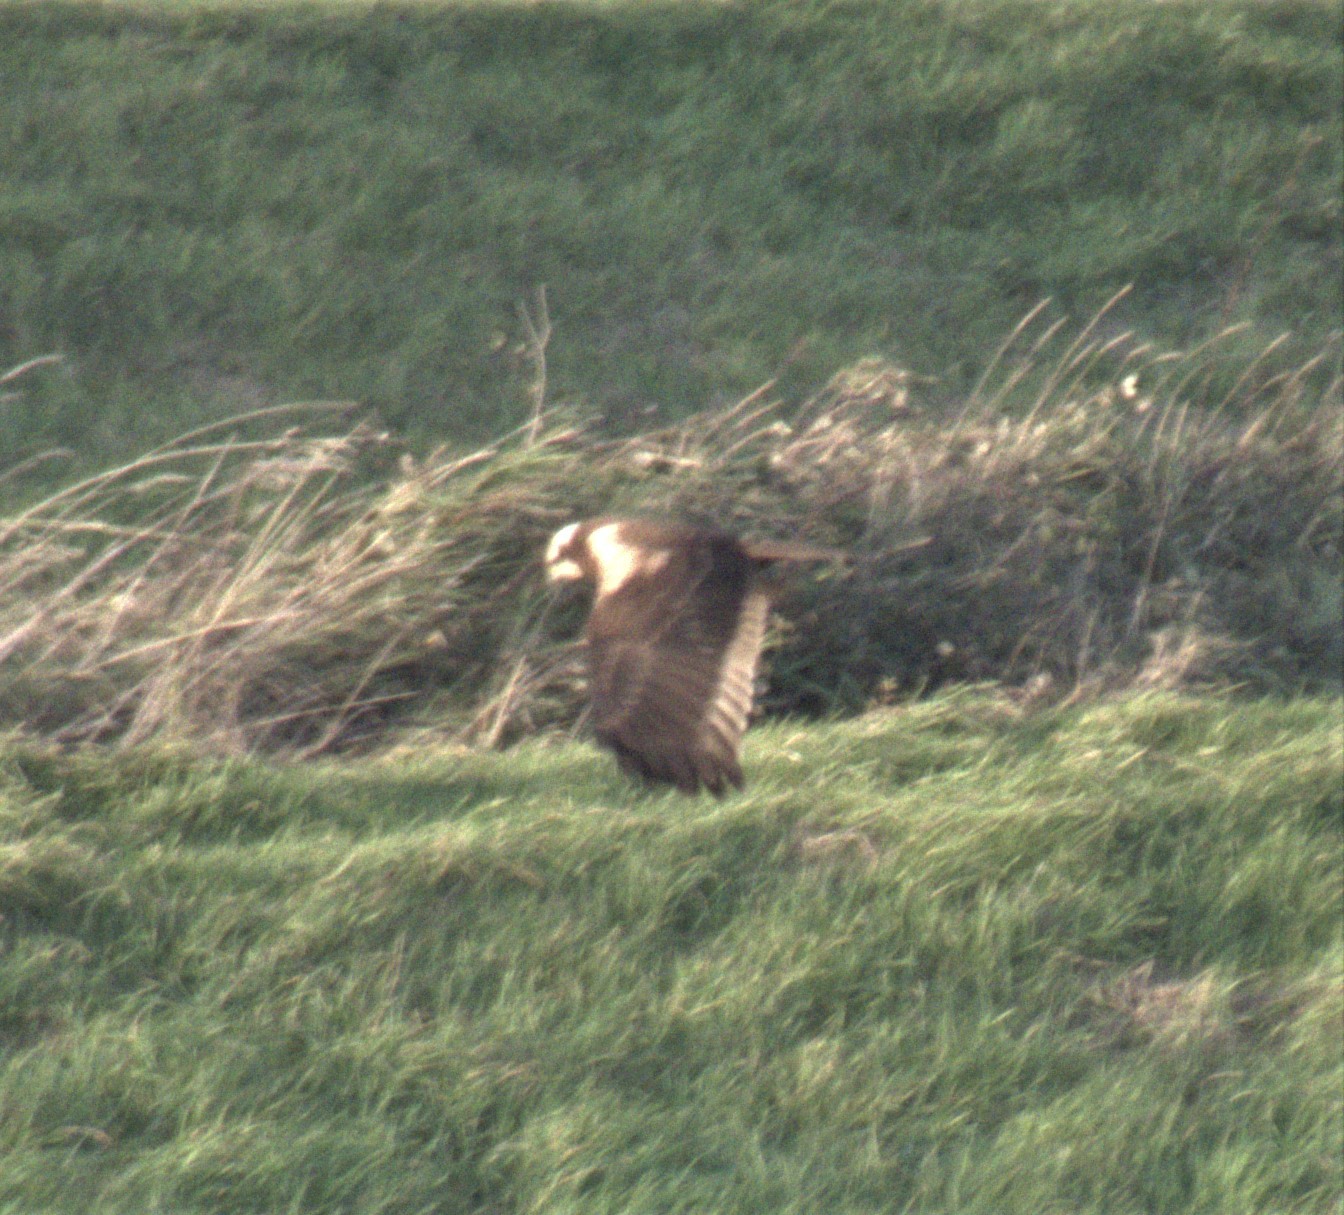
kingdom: Animalia
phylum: Chordata
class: Aves
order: Accipitriformes
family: Accipitridae
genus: Circus
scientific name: Circus aeruginosus
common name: Western marsh harrier
